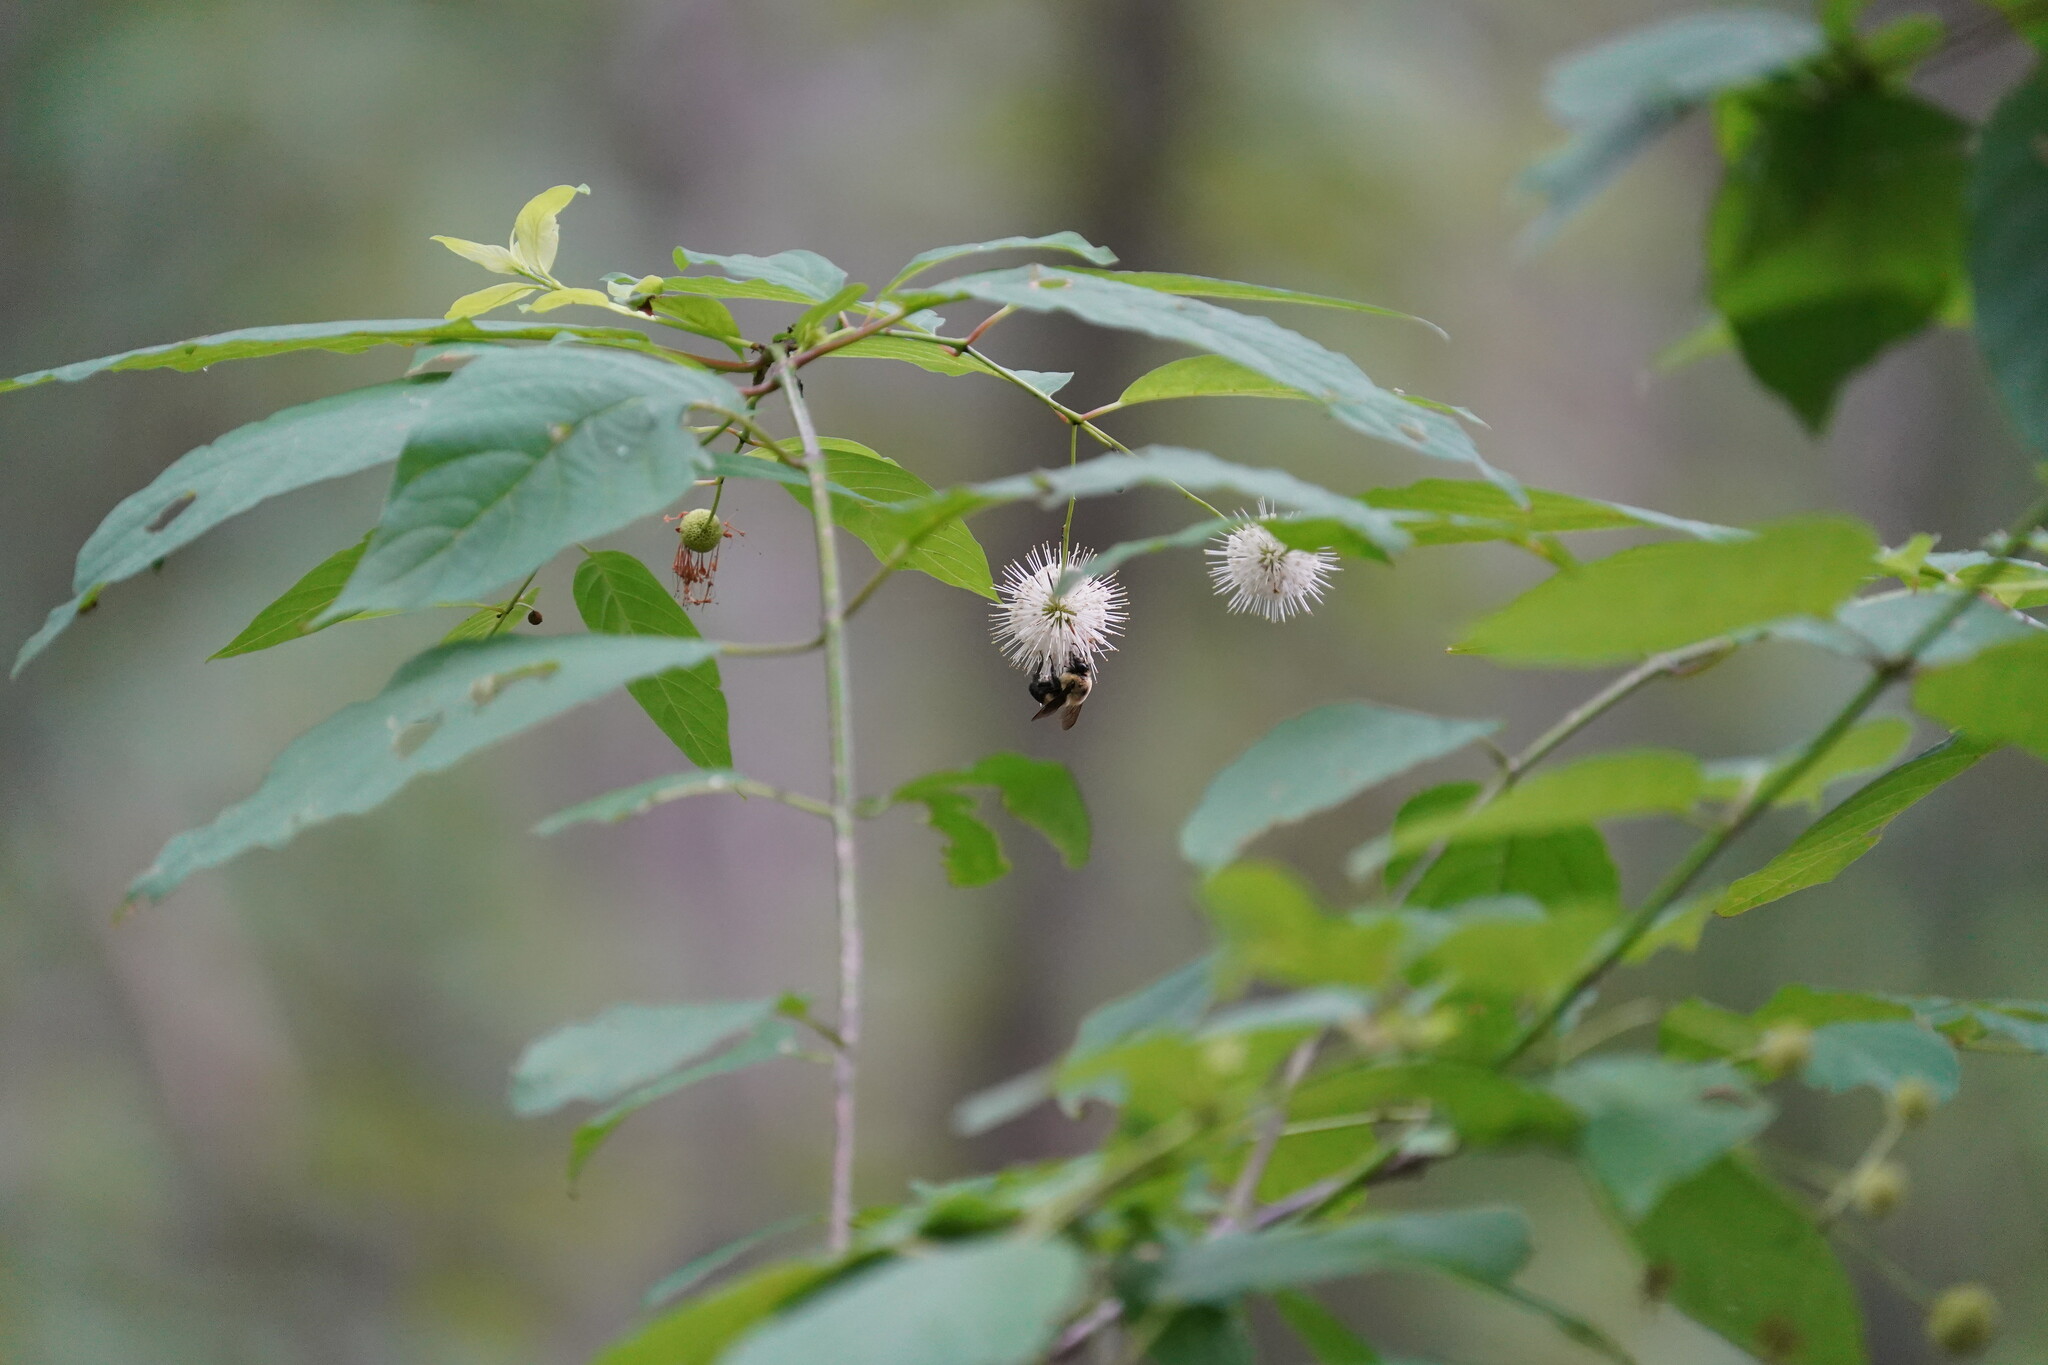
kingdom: Plantae
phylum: Tracheophyta
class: Magnoliopsida
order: Gentianales
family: Rubiaceae
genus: Cephalanthus
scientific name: Cephalanthus occidentalis
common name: Button-willow
